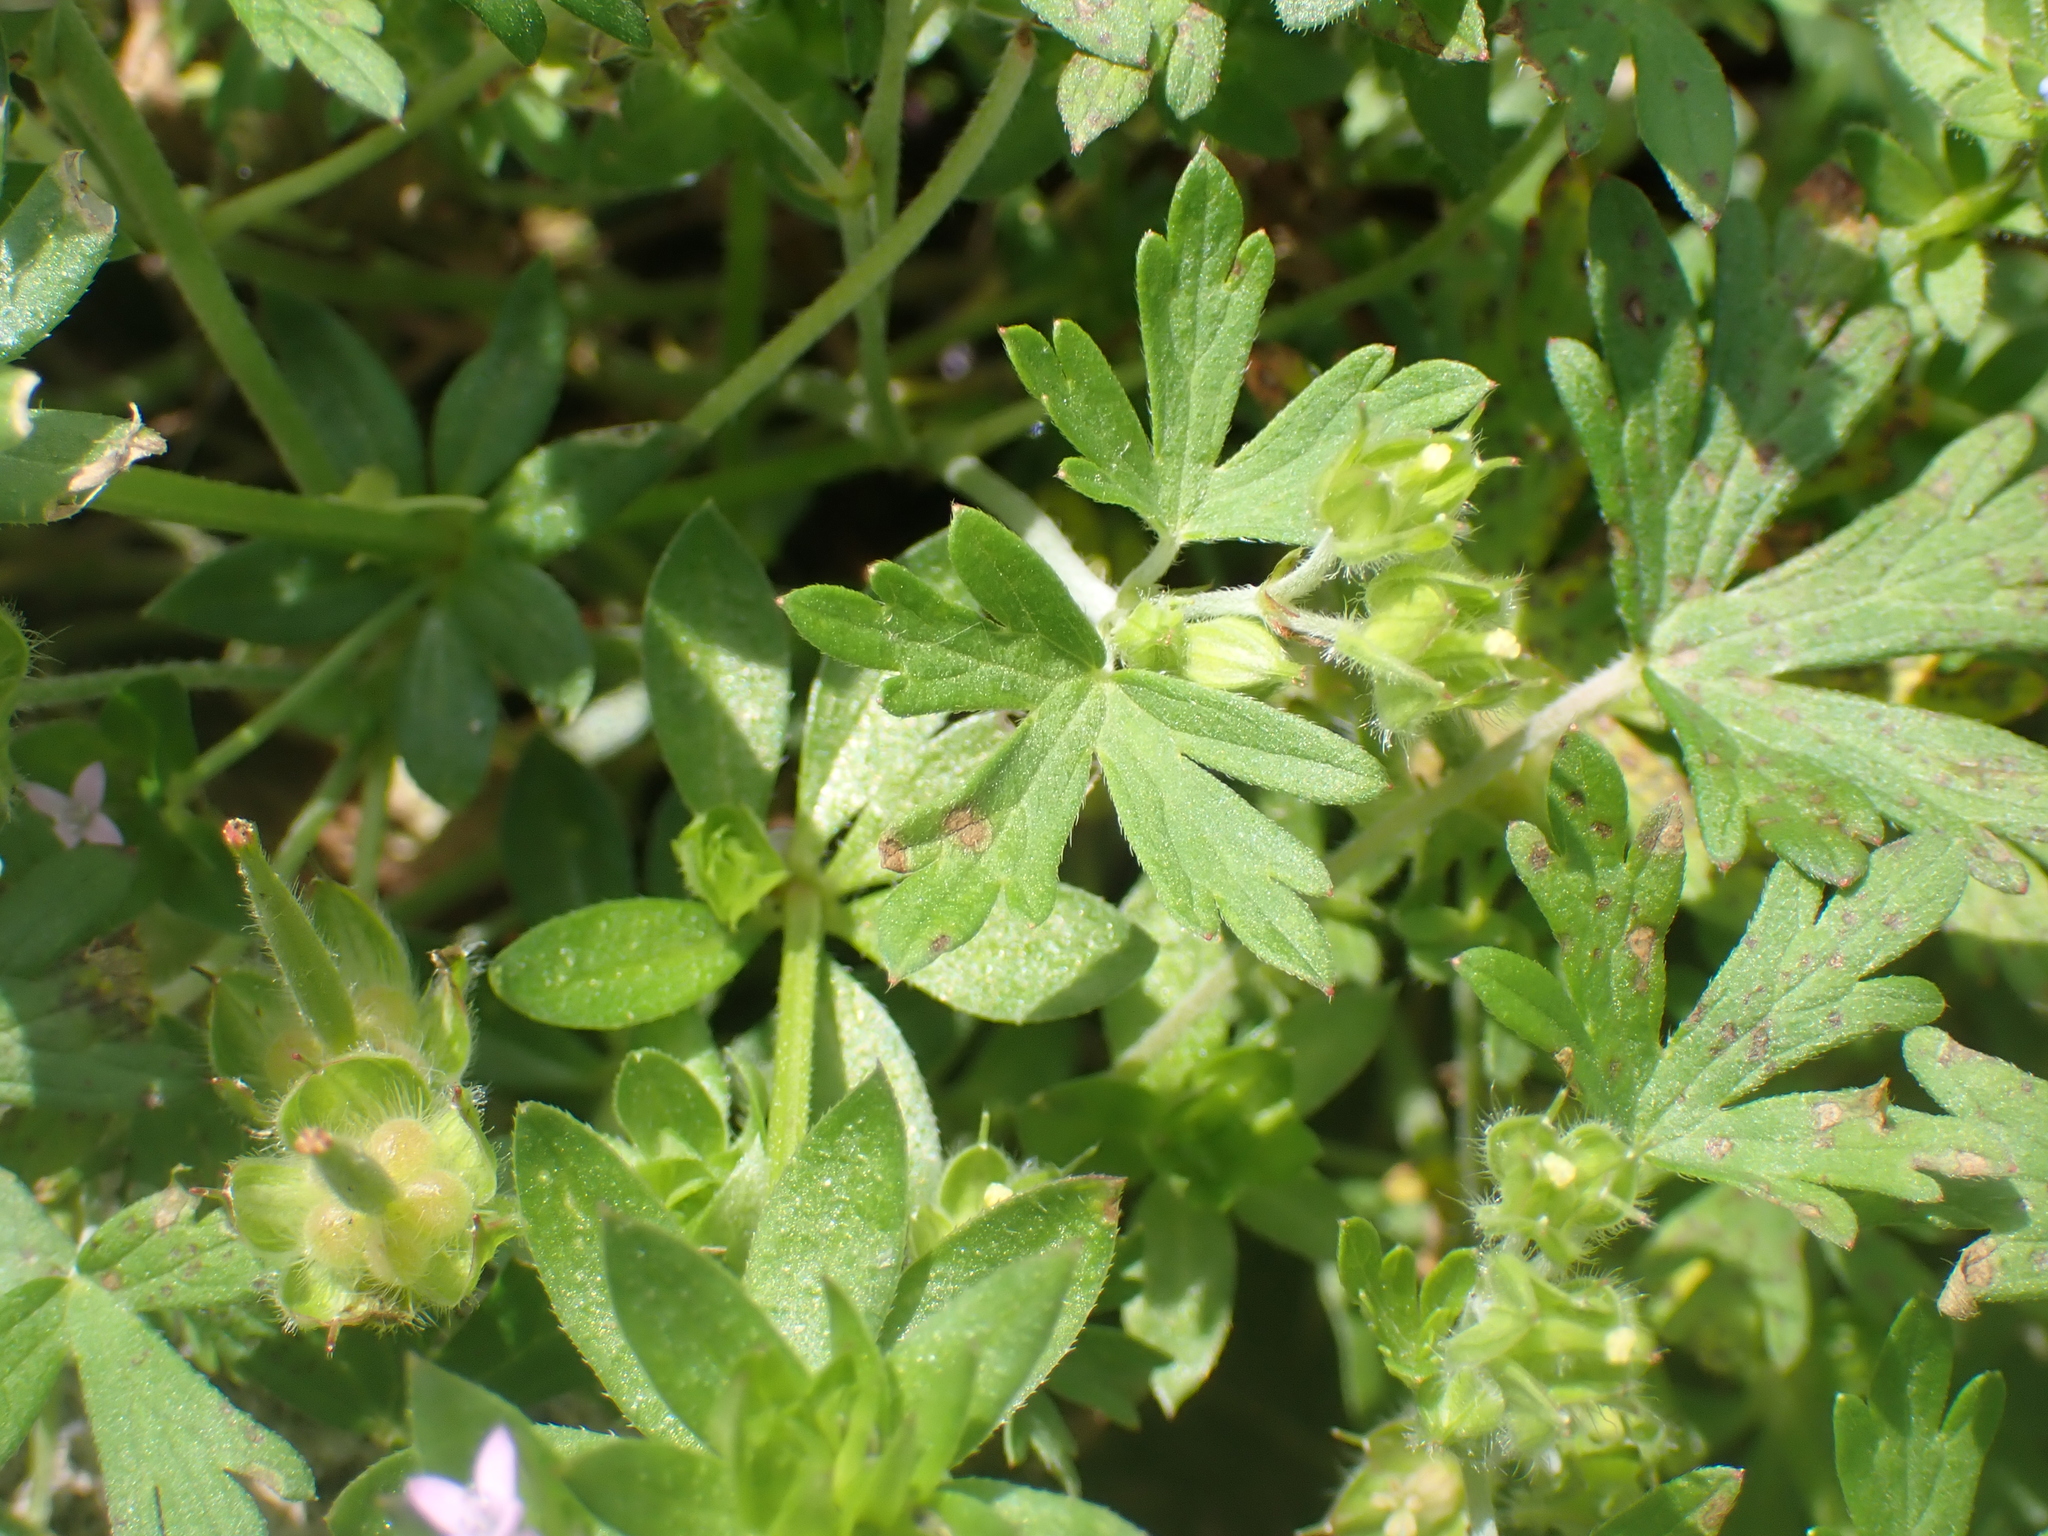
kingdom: Plantae
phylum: Tracheophyta
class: Magnoliopsida
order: Geraniales
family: Geraniaceae
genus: Geranium
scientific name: Geranium carolinianum
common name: Carolina crane's-bill
